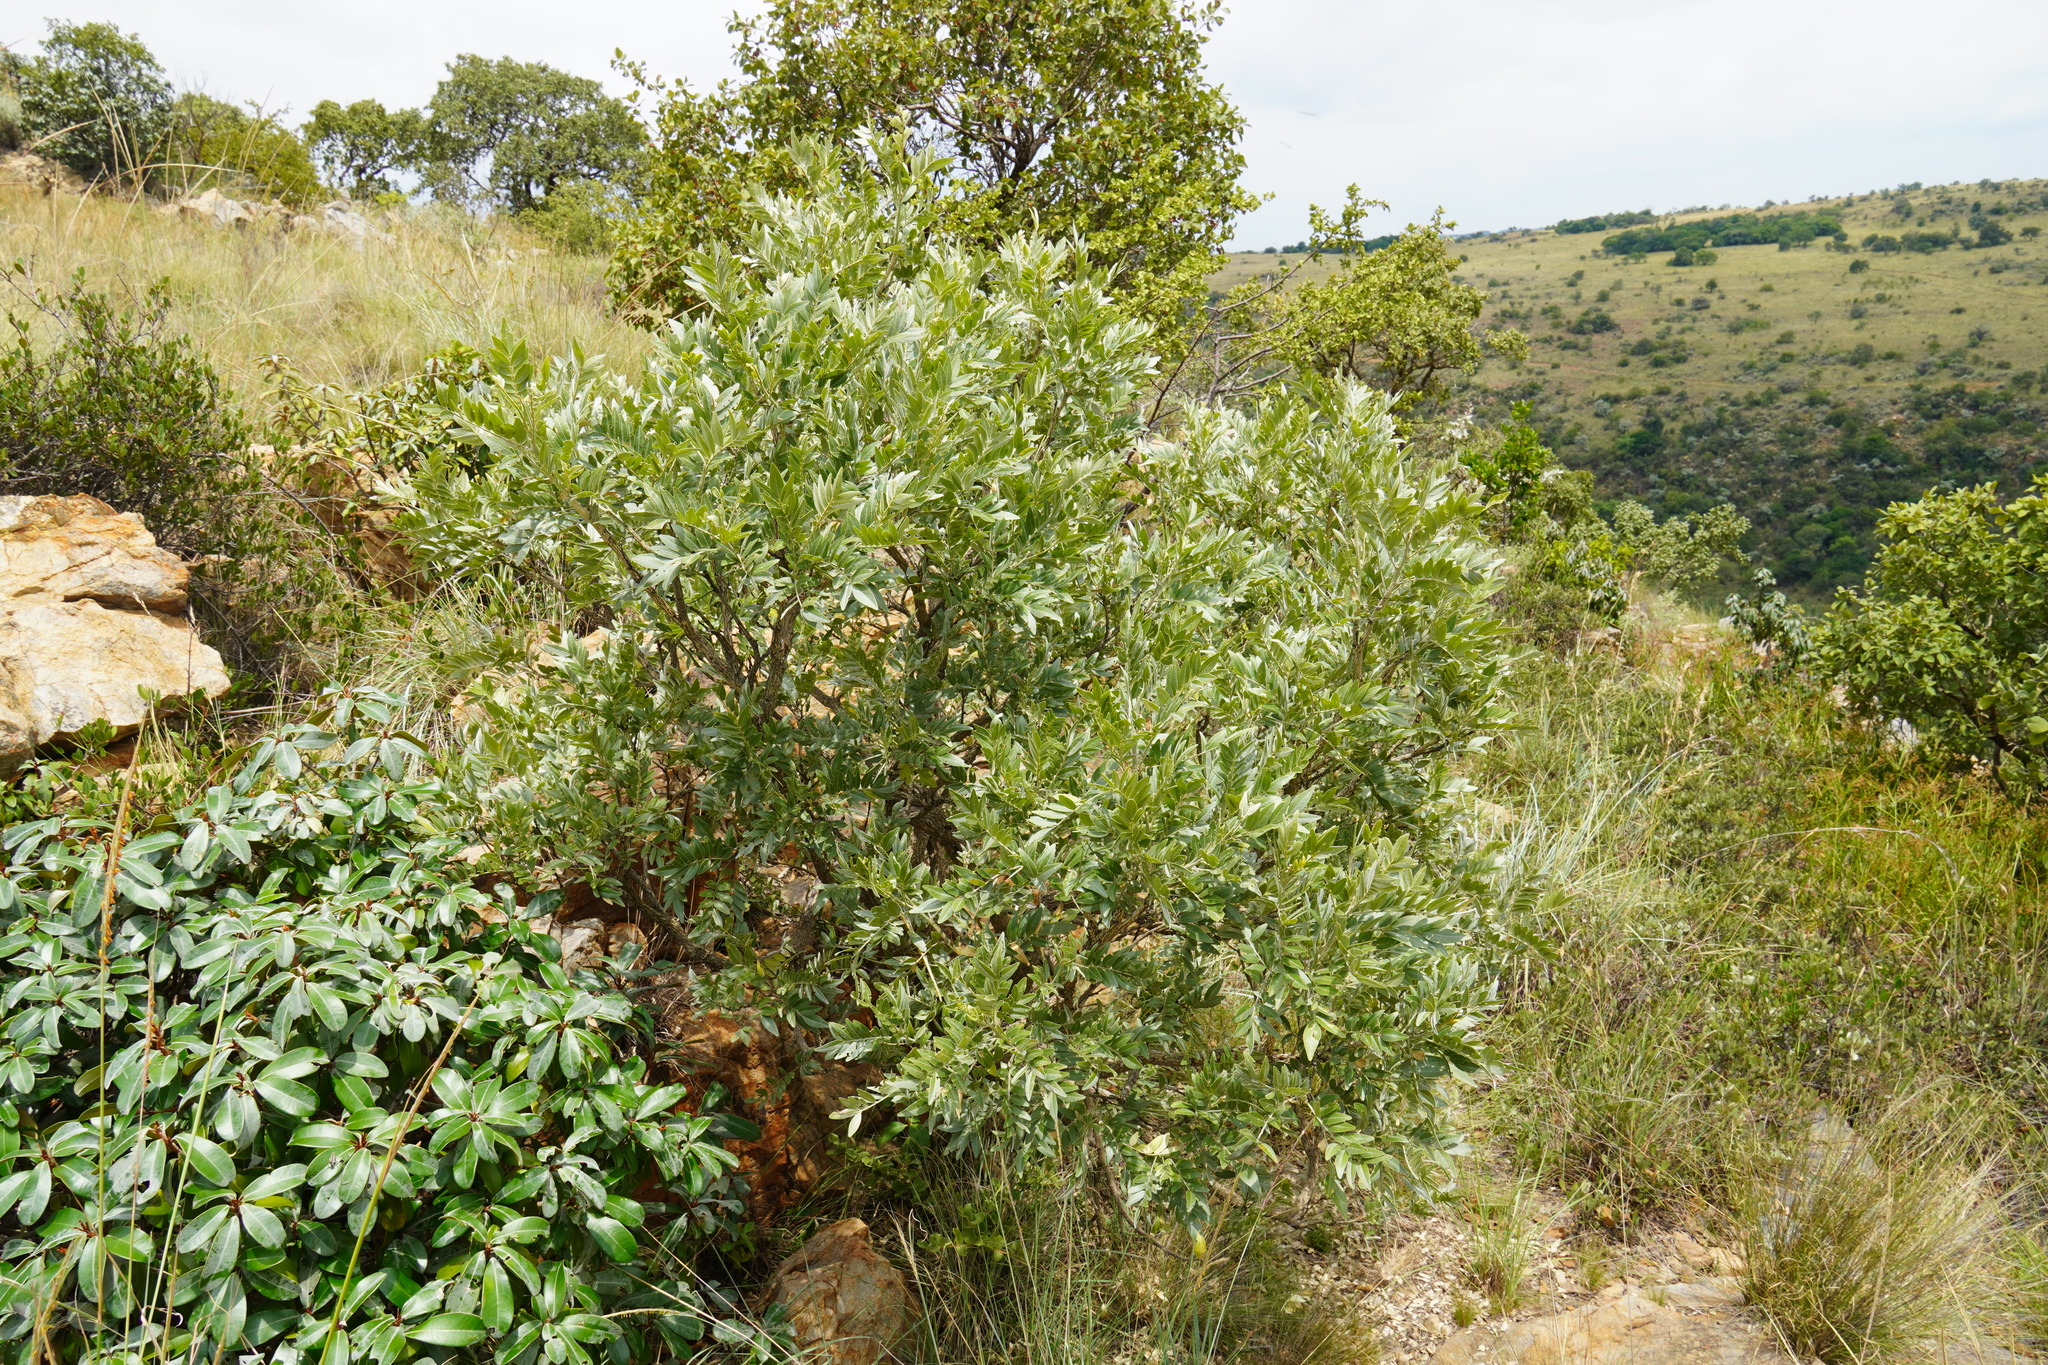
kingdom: Plantae
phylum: Tracheophyta
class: Magnoliopsida
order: Fabales
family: Fabaceae
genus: Mundulea
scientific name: Mundulea sericea
